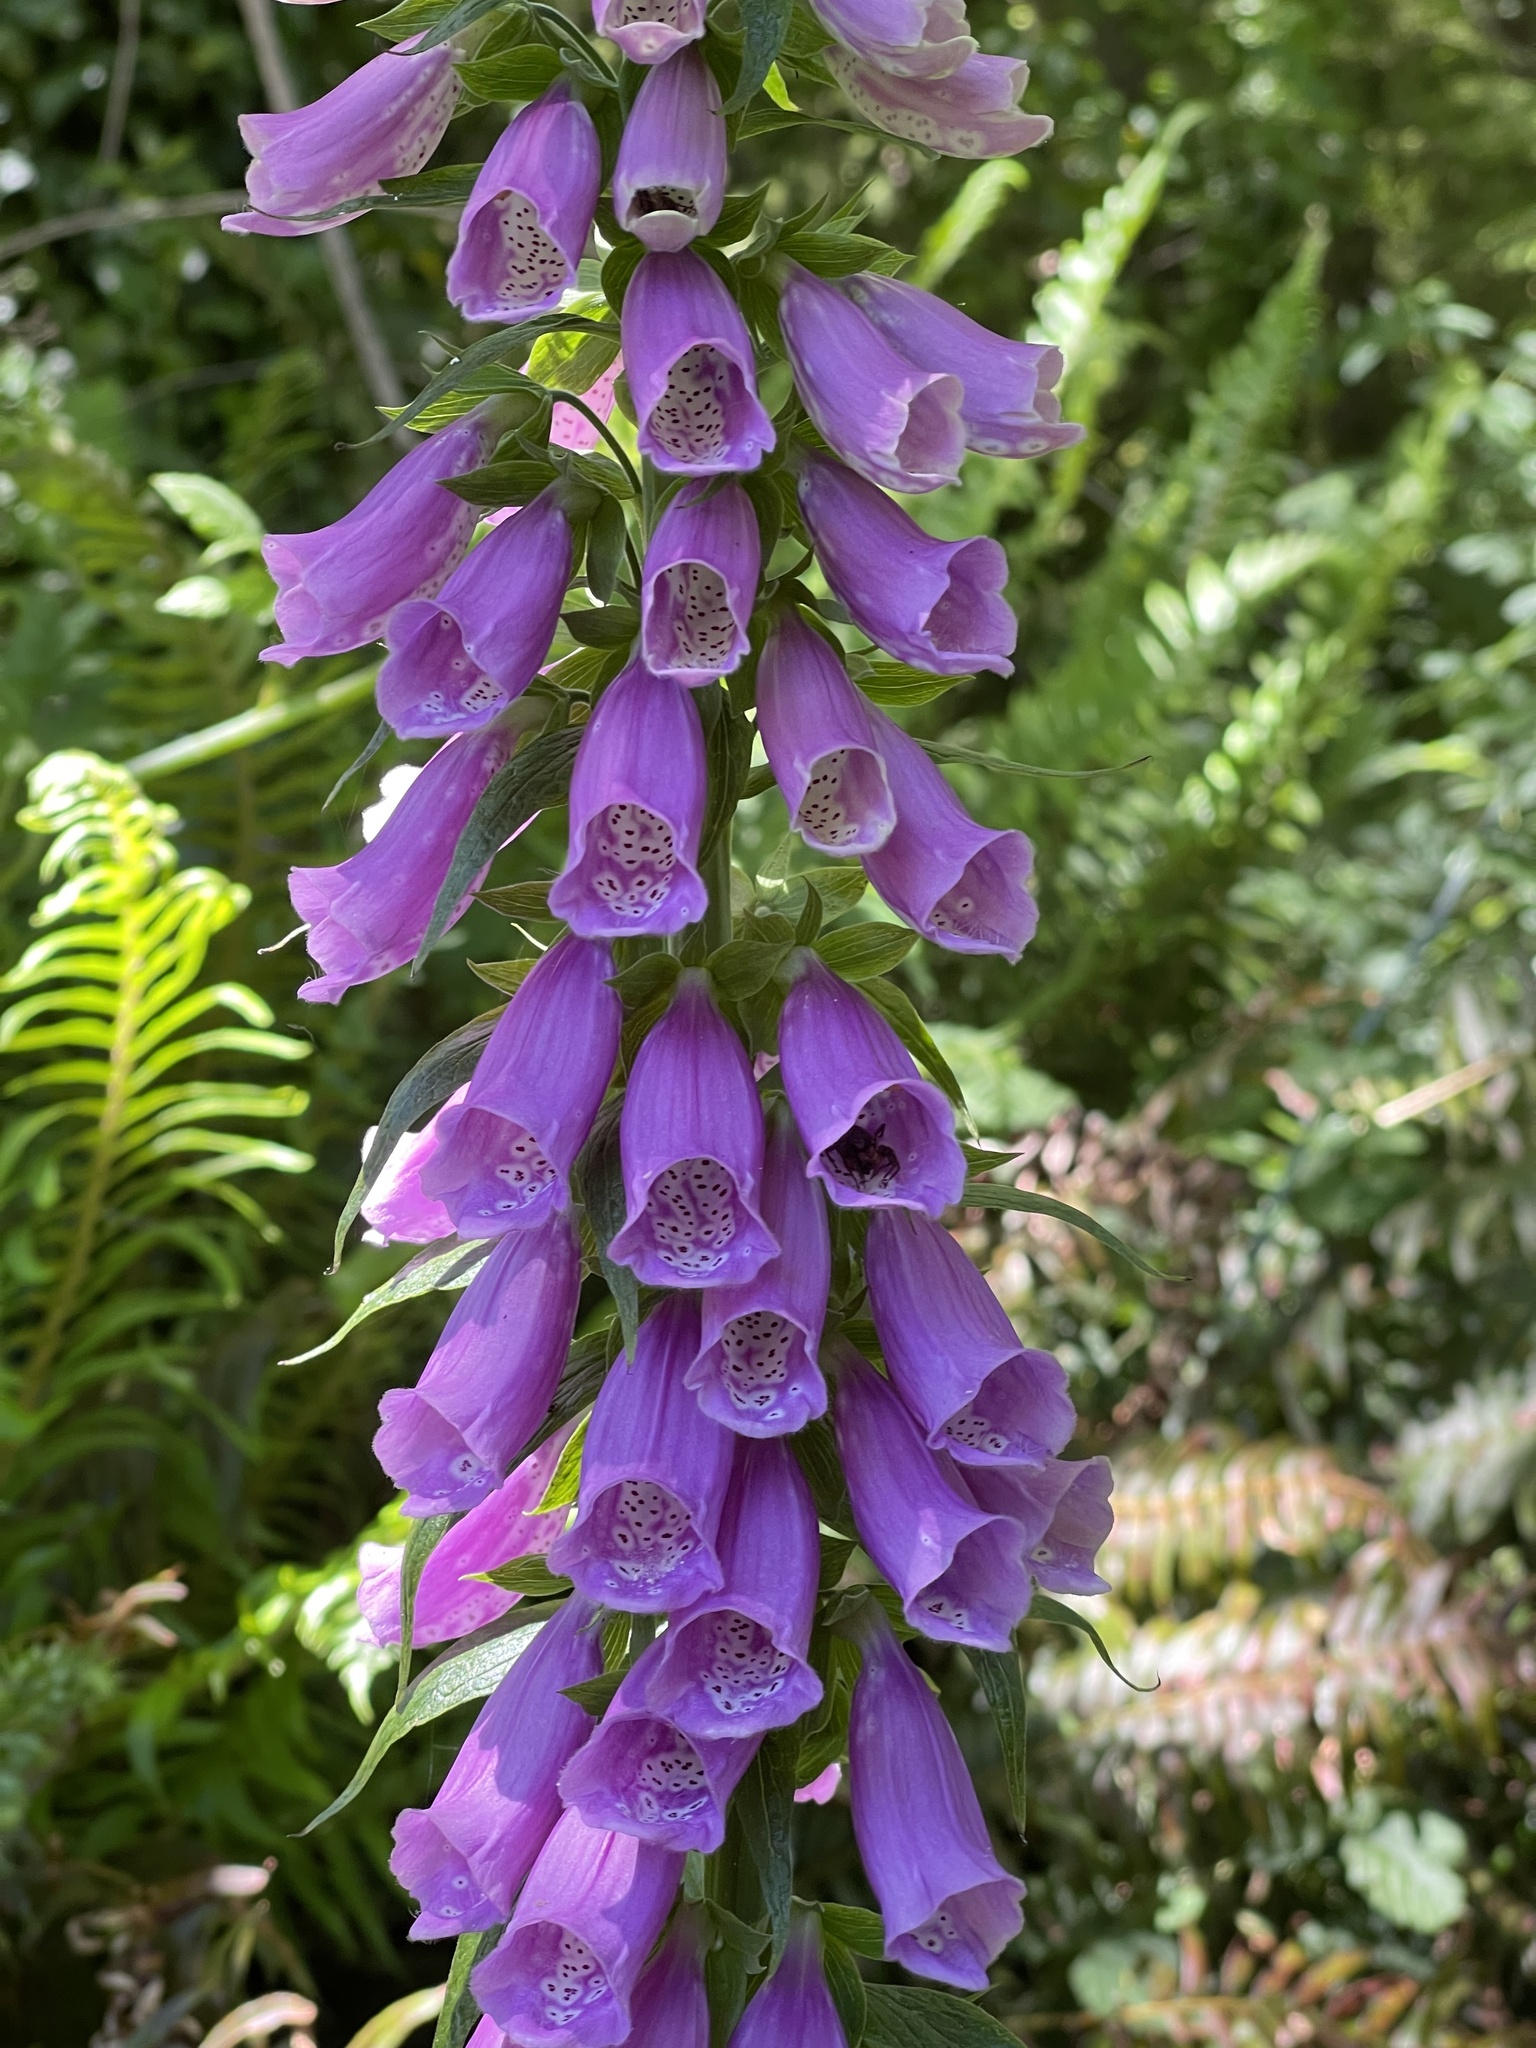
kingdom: Plantae
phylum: Tracheophyta
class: Magnoliopsida
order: Lamiales
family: Plantaginaceae
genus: Digitalis
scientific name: Digitalis purpurea
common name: Foxglove
